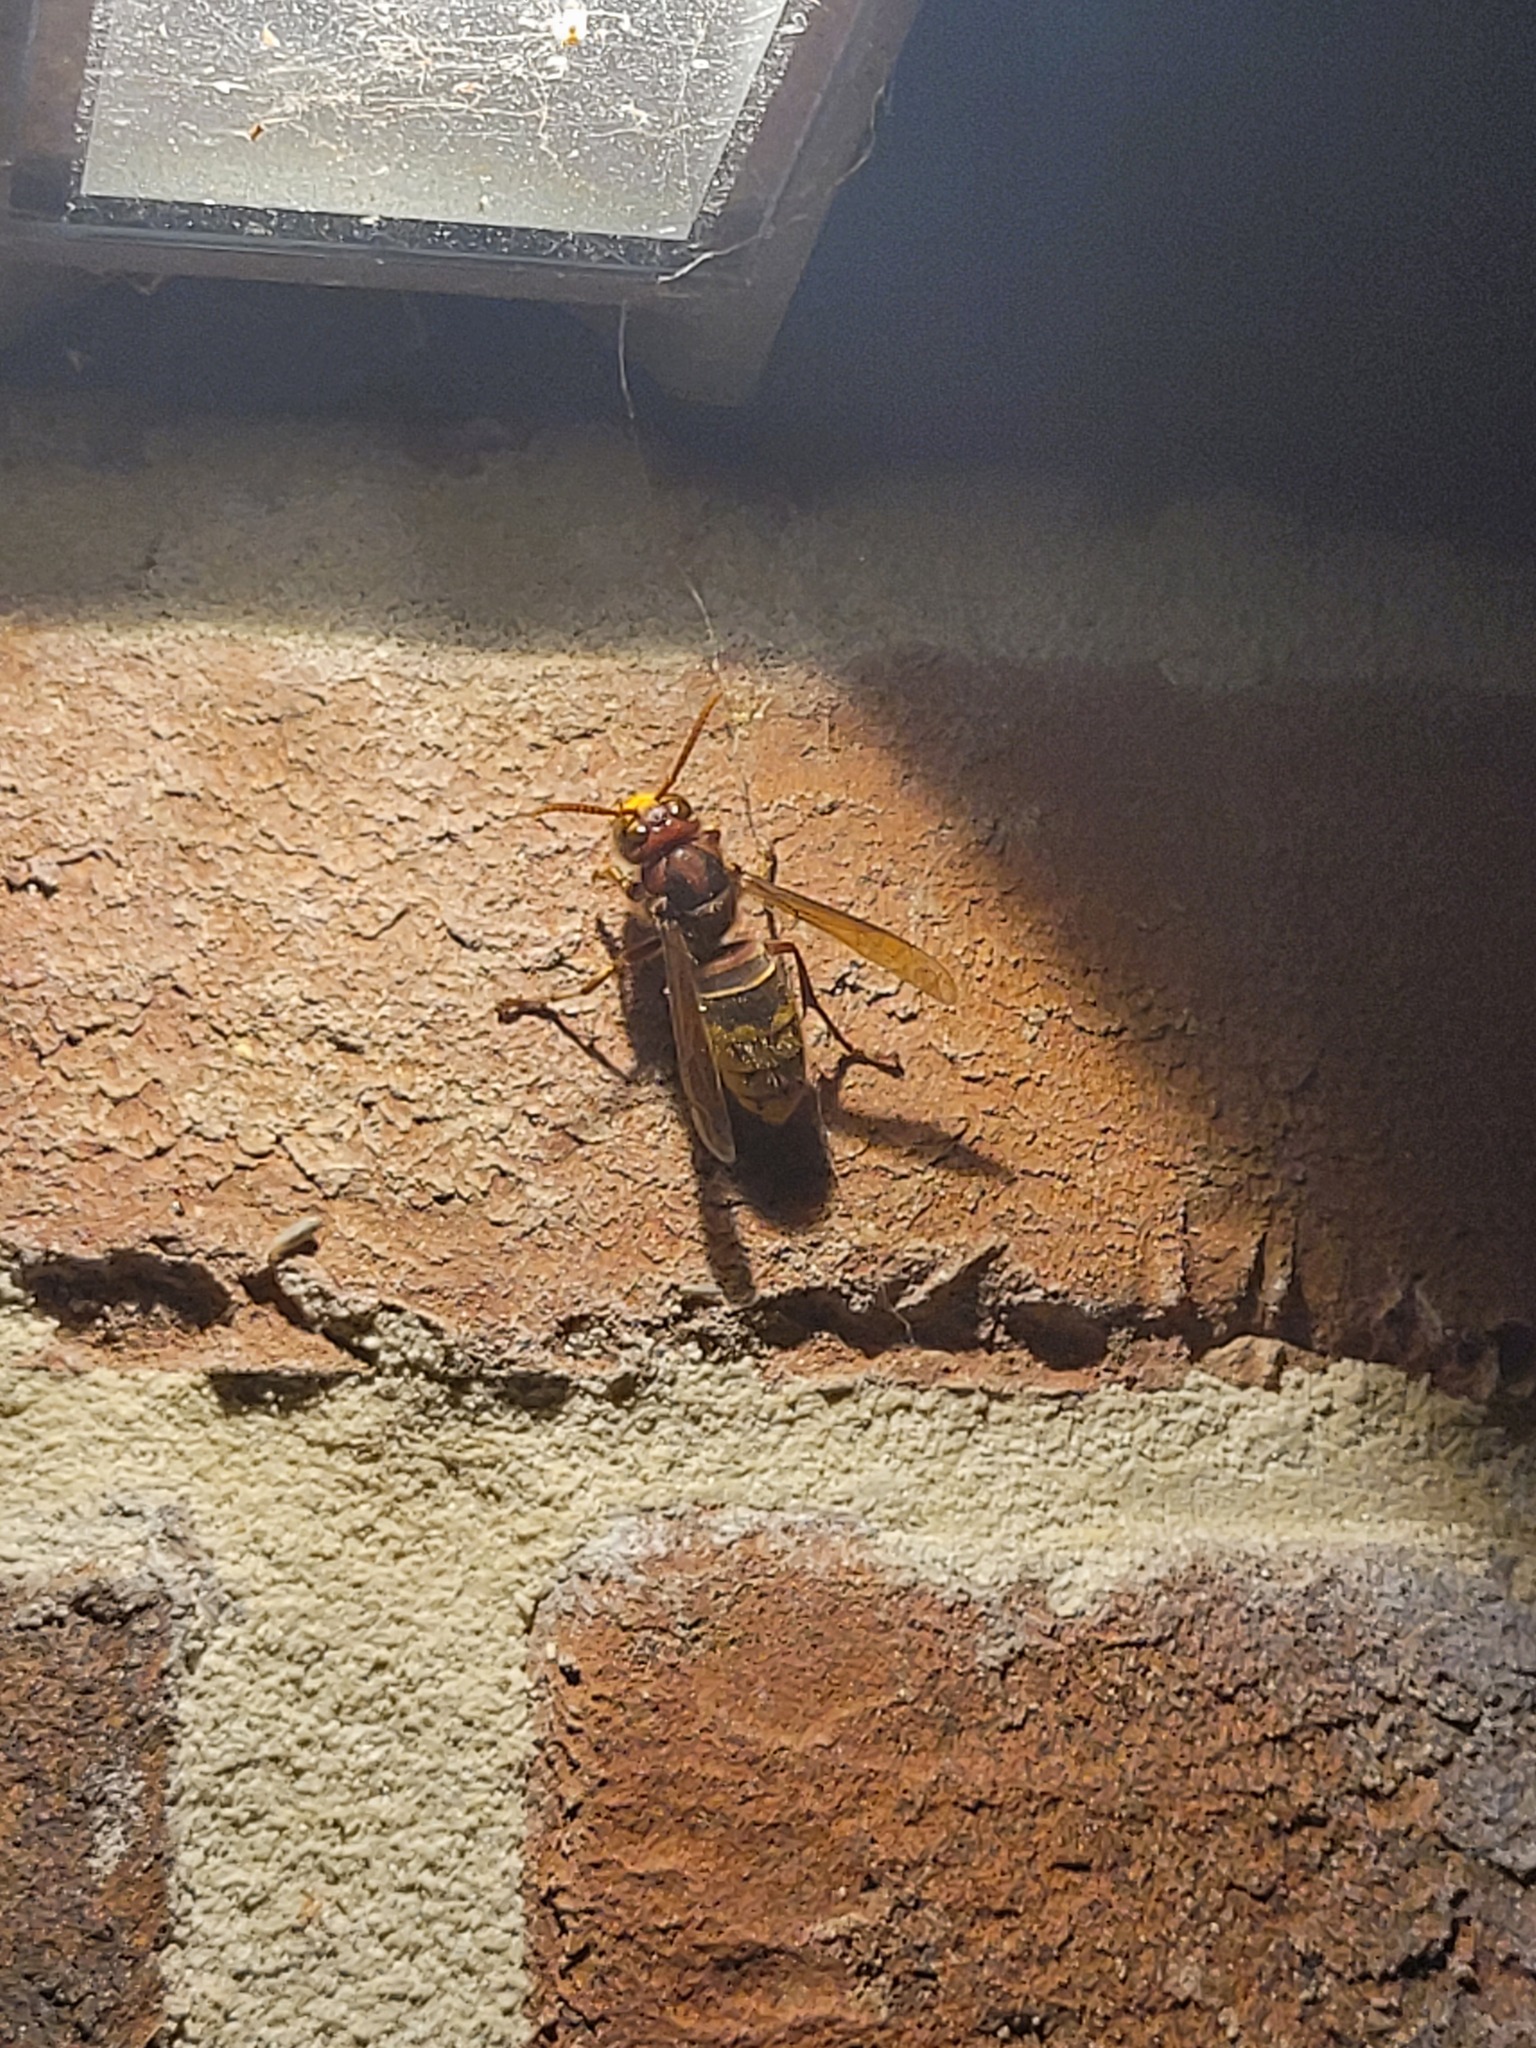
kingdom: Animalia
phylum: Arthropoda
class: Insecta
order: Hymenoptera
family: Vespidae
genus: Vespa
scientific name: Vespa crabro
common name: Hornet
